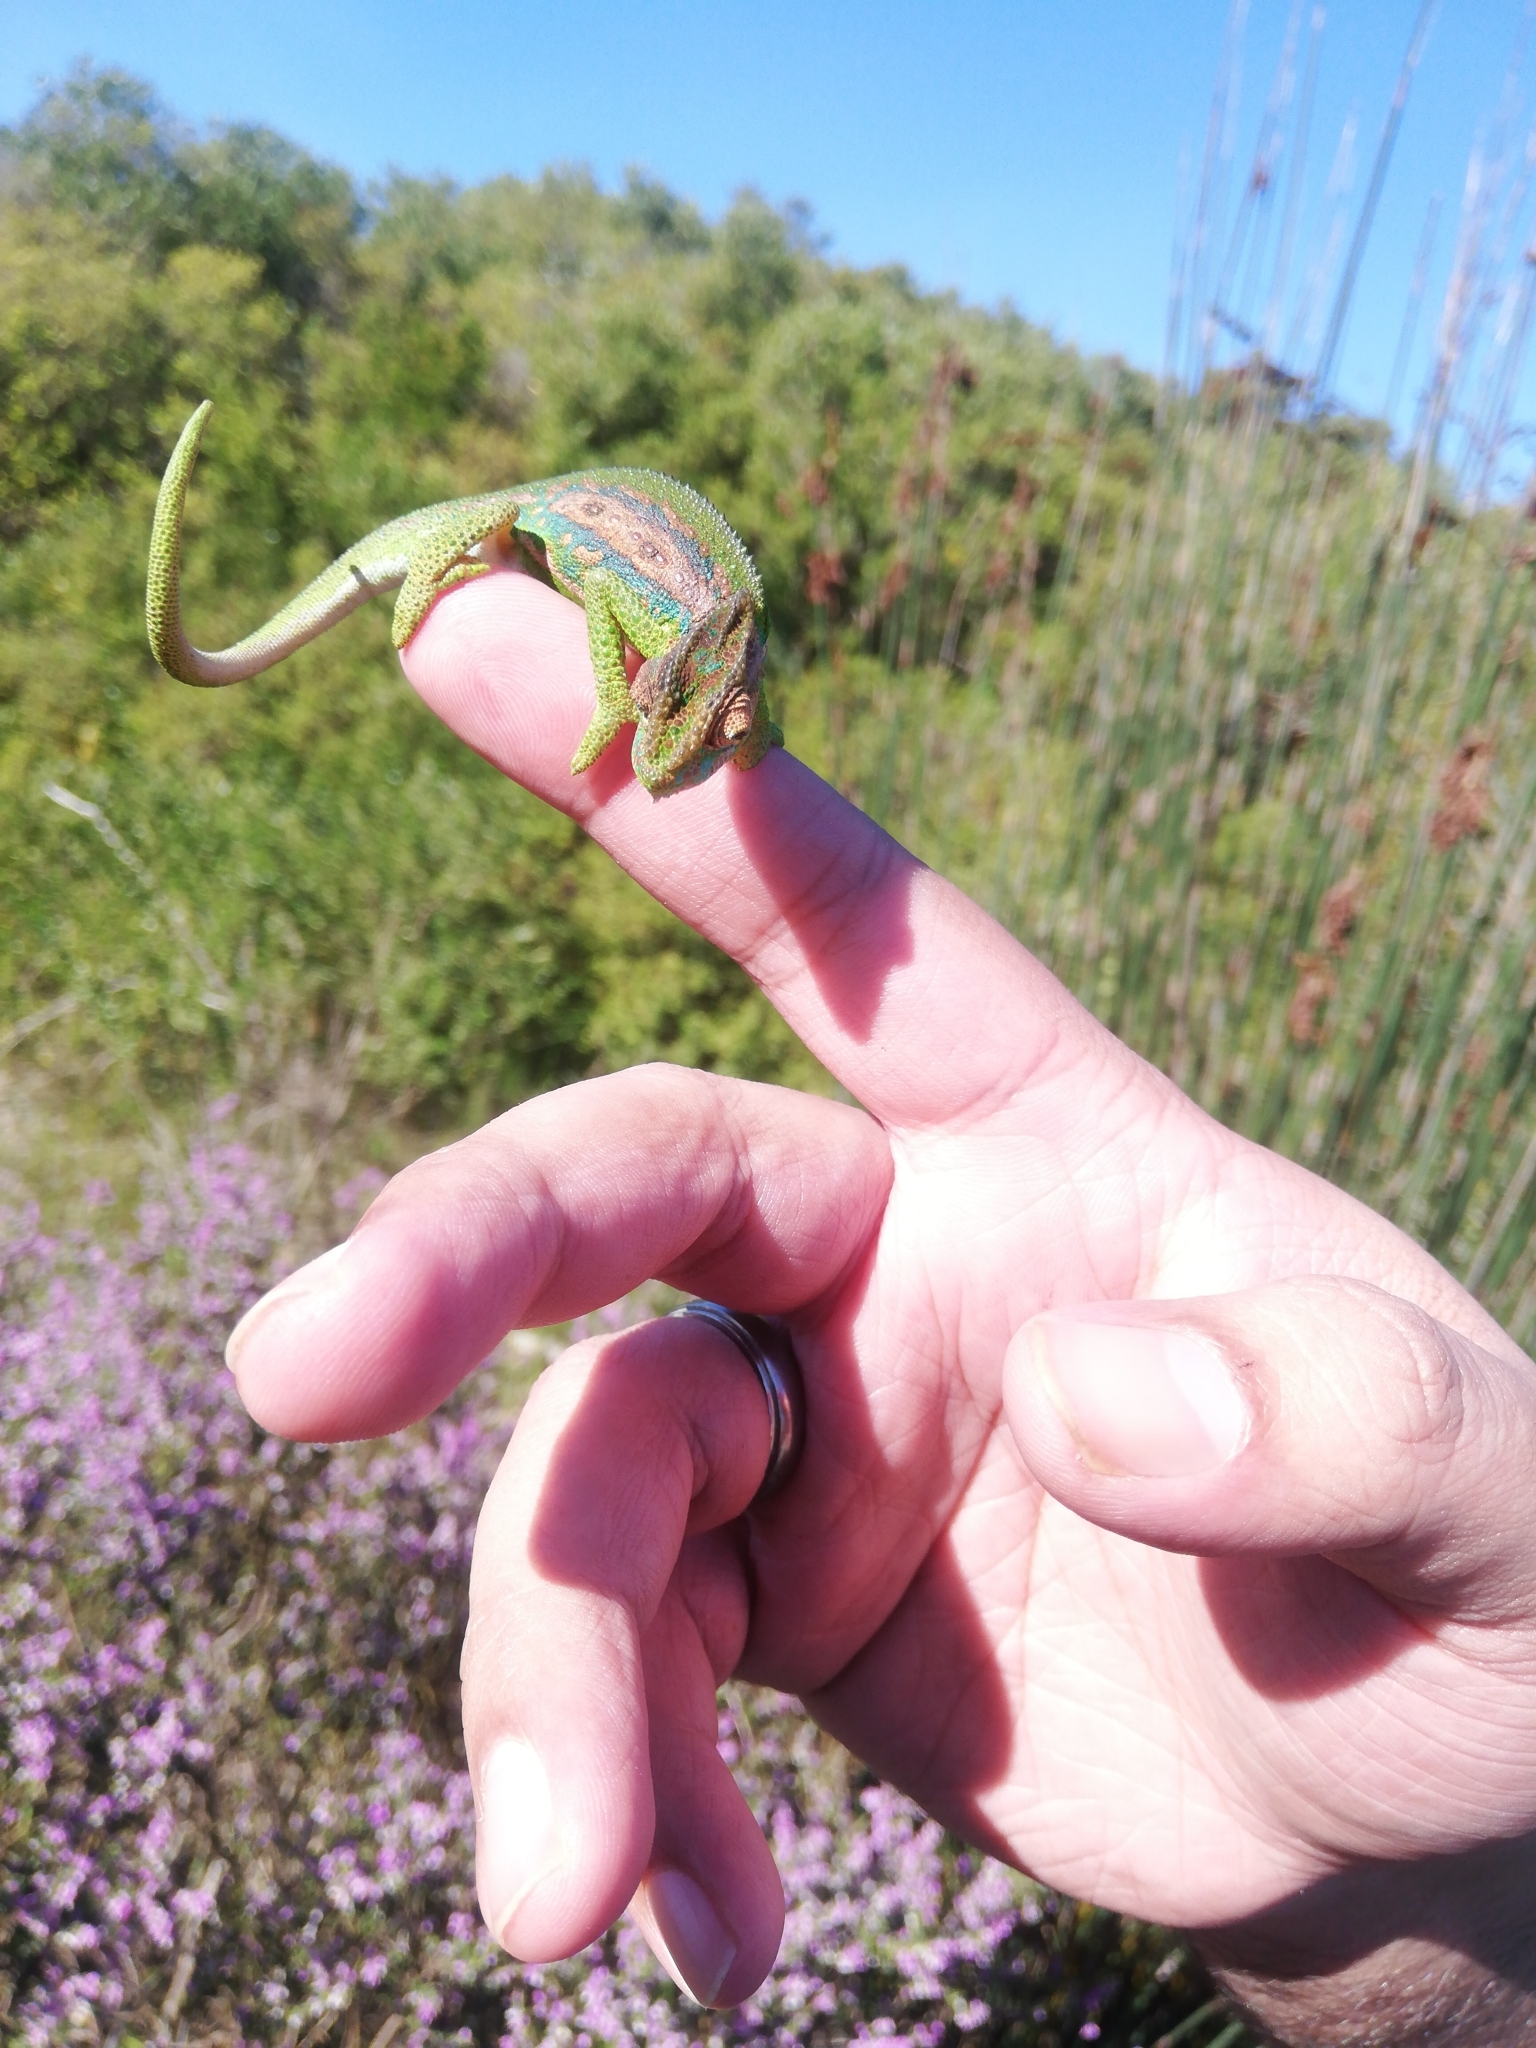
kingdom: Animalia
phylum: Chordata
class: Squamata
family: Chamaeleonidae
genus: Bradypodion
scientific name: Bradypodion pumilum
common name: Cape dwarf chameleon
